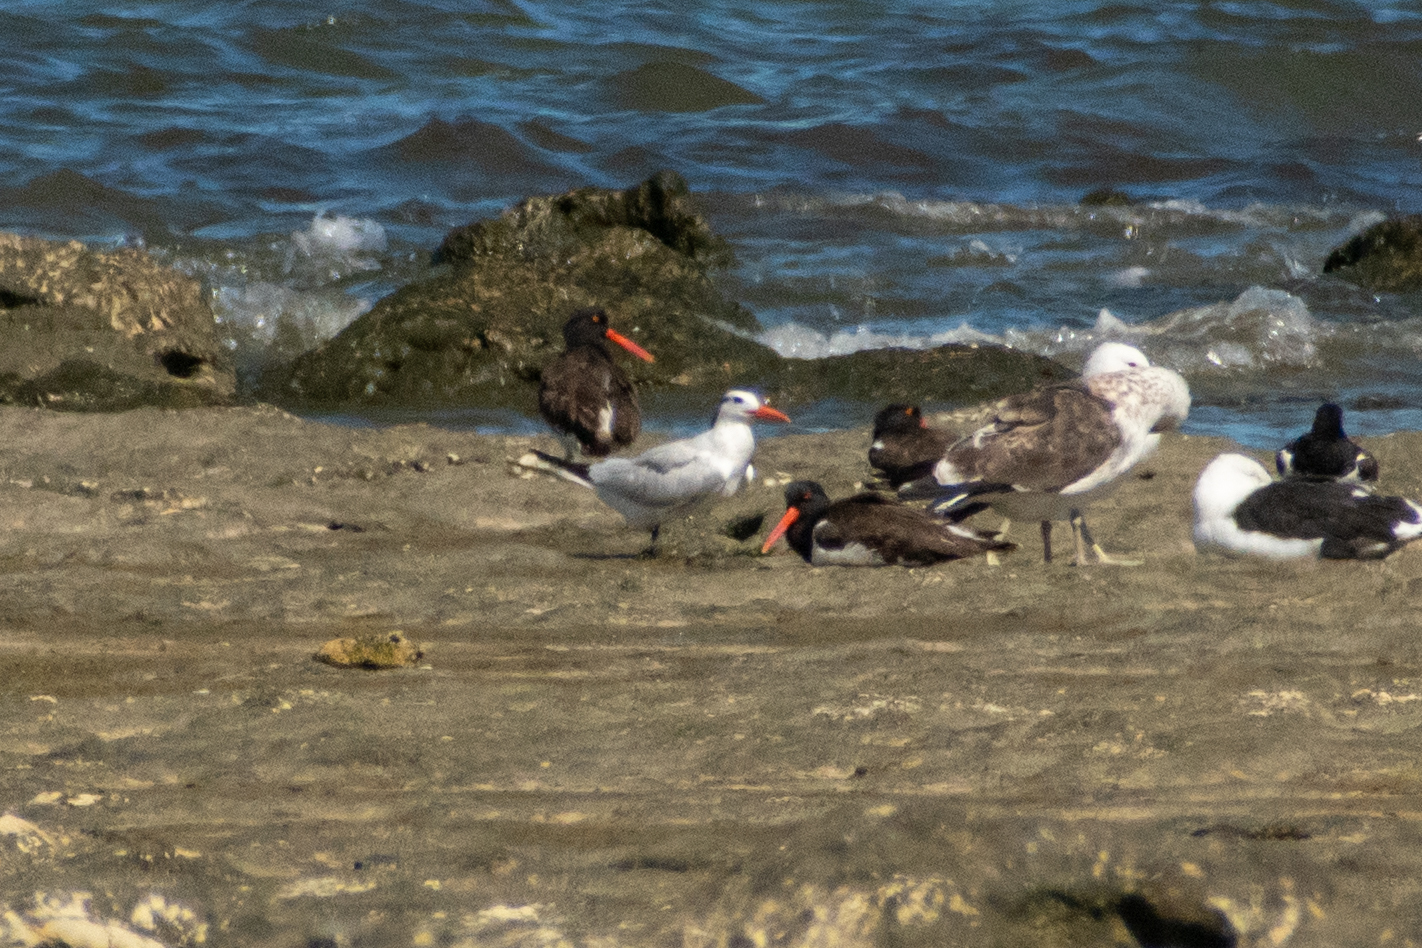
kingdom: Animalia
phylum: Chordata
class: Aves
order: Charadriiformes
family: Laridae
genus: Thalasseus
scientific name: Thalasseus maximus
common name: Royal tern
